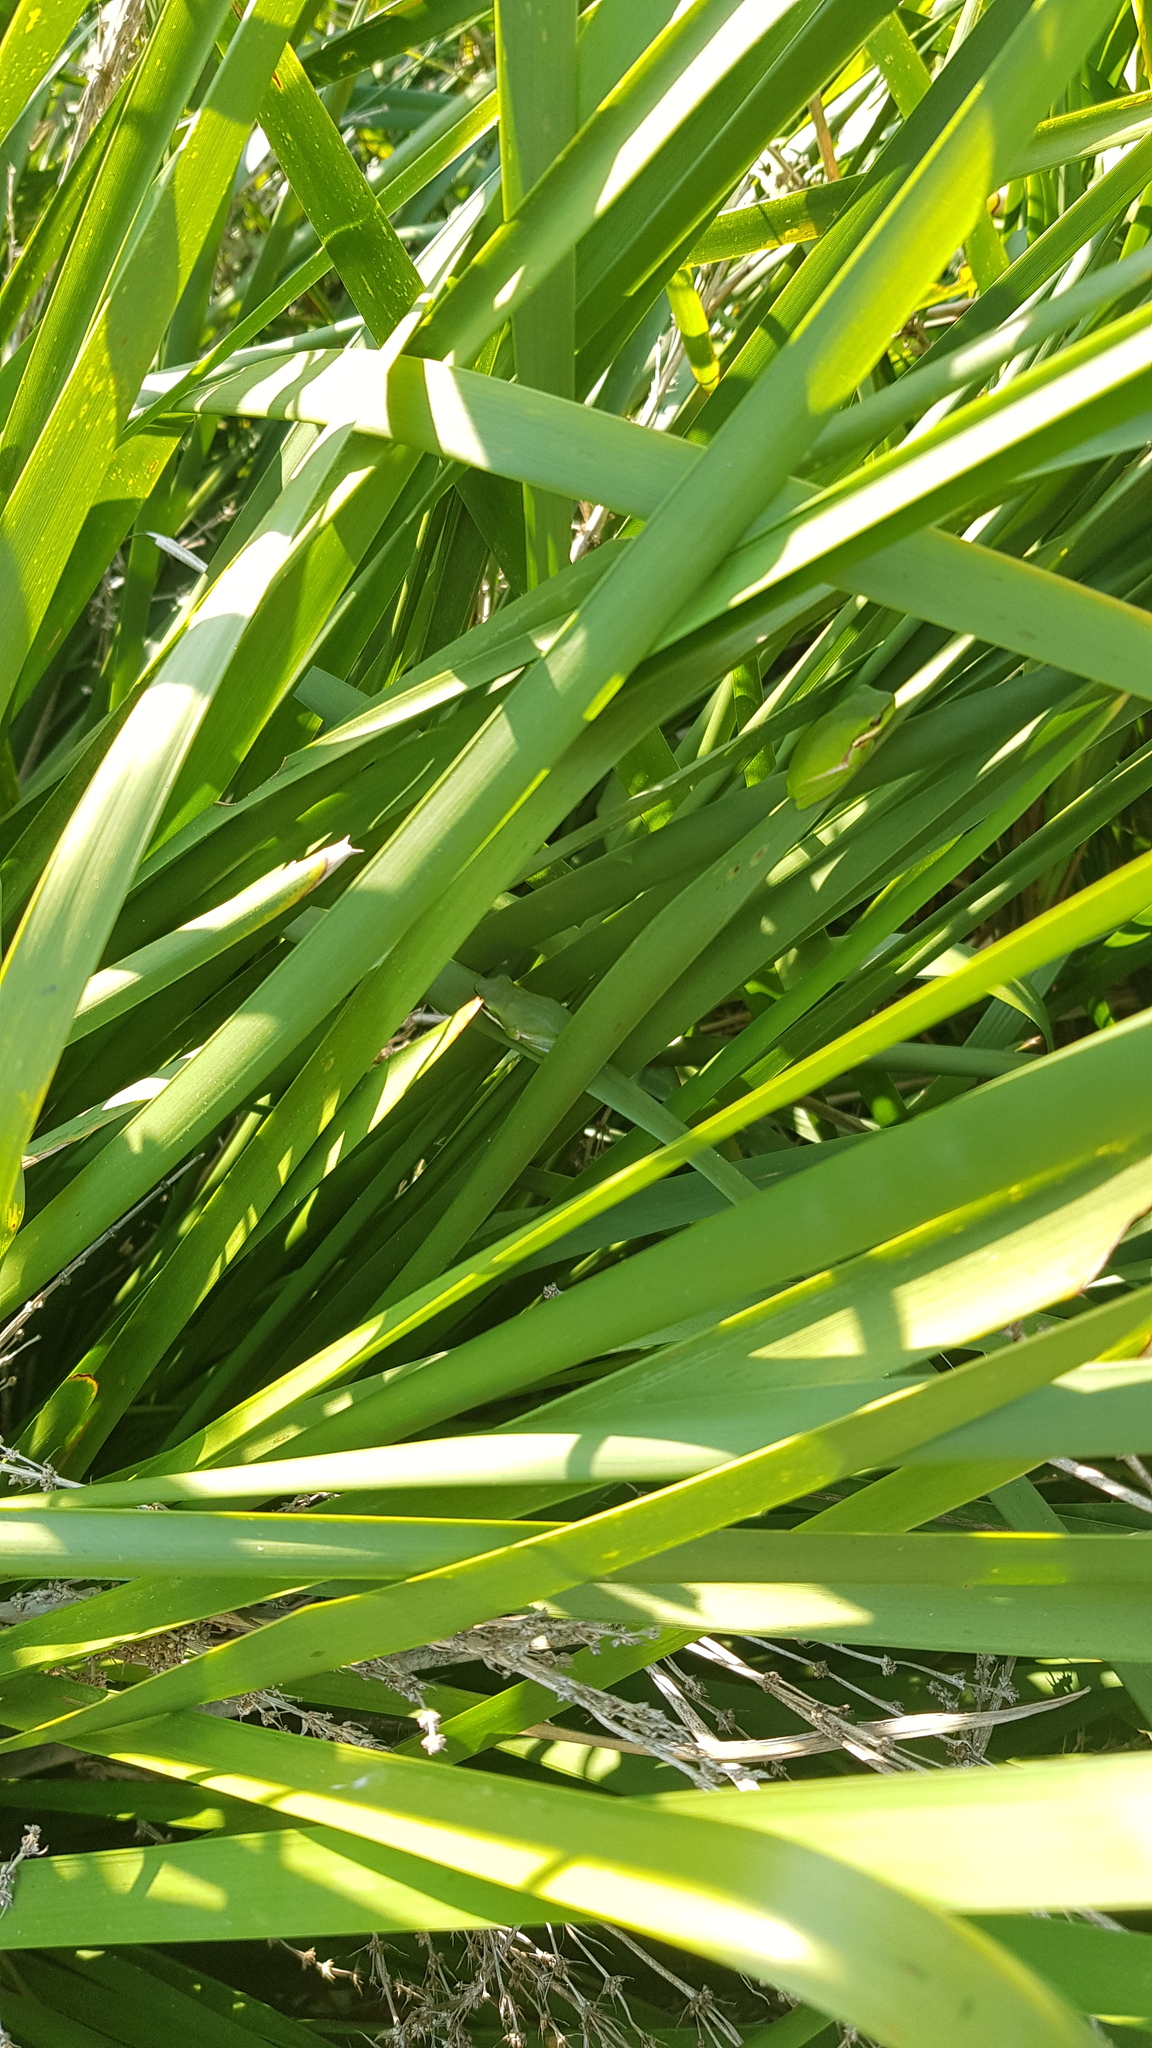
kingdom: Animalia
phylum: Chordata
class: Amphibia
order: Anura
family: Pelodryadidae
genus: Litoria
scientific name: Litoria fallax
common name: Eastern dwarf treefrog
